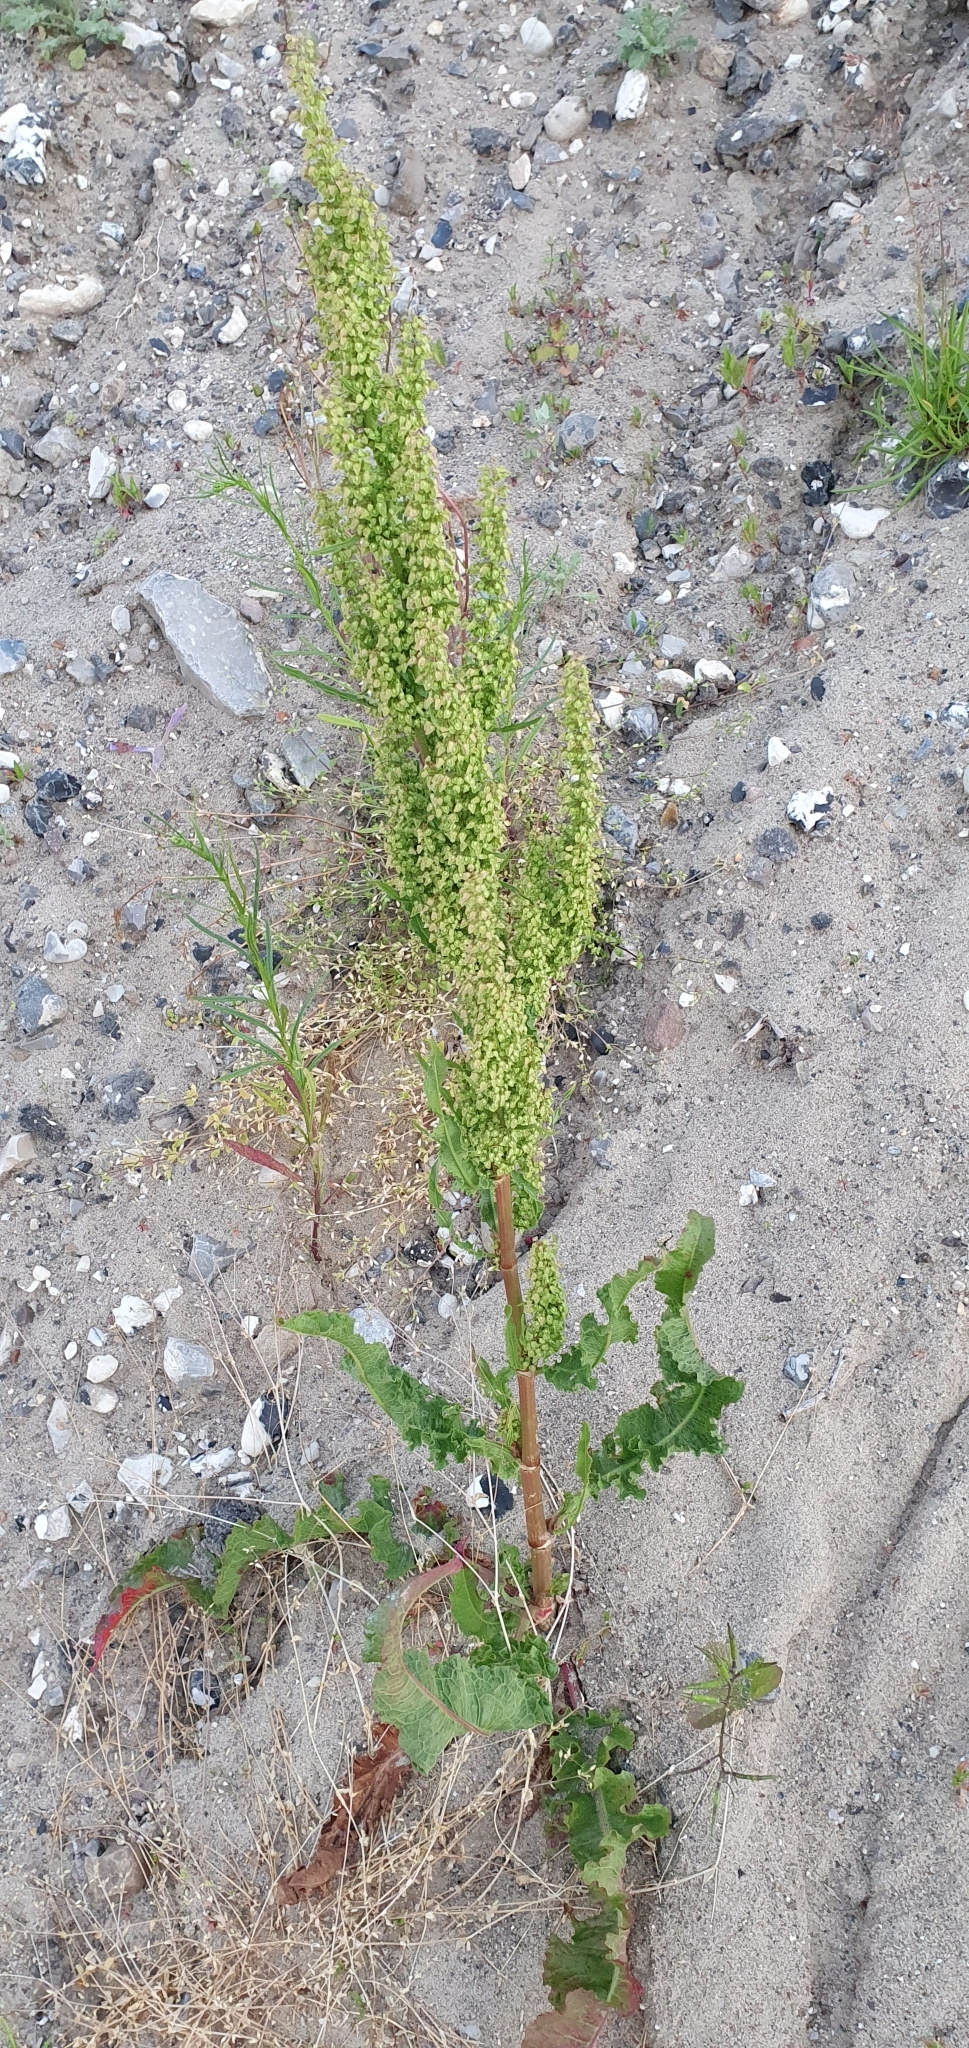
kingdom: Plantae
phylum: Tracheophyta
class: Magnoliopsida
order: Caryophyllales
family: Polygonaceae
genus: Rumex
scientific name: Rumex crispus
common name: Curled dock
